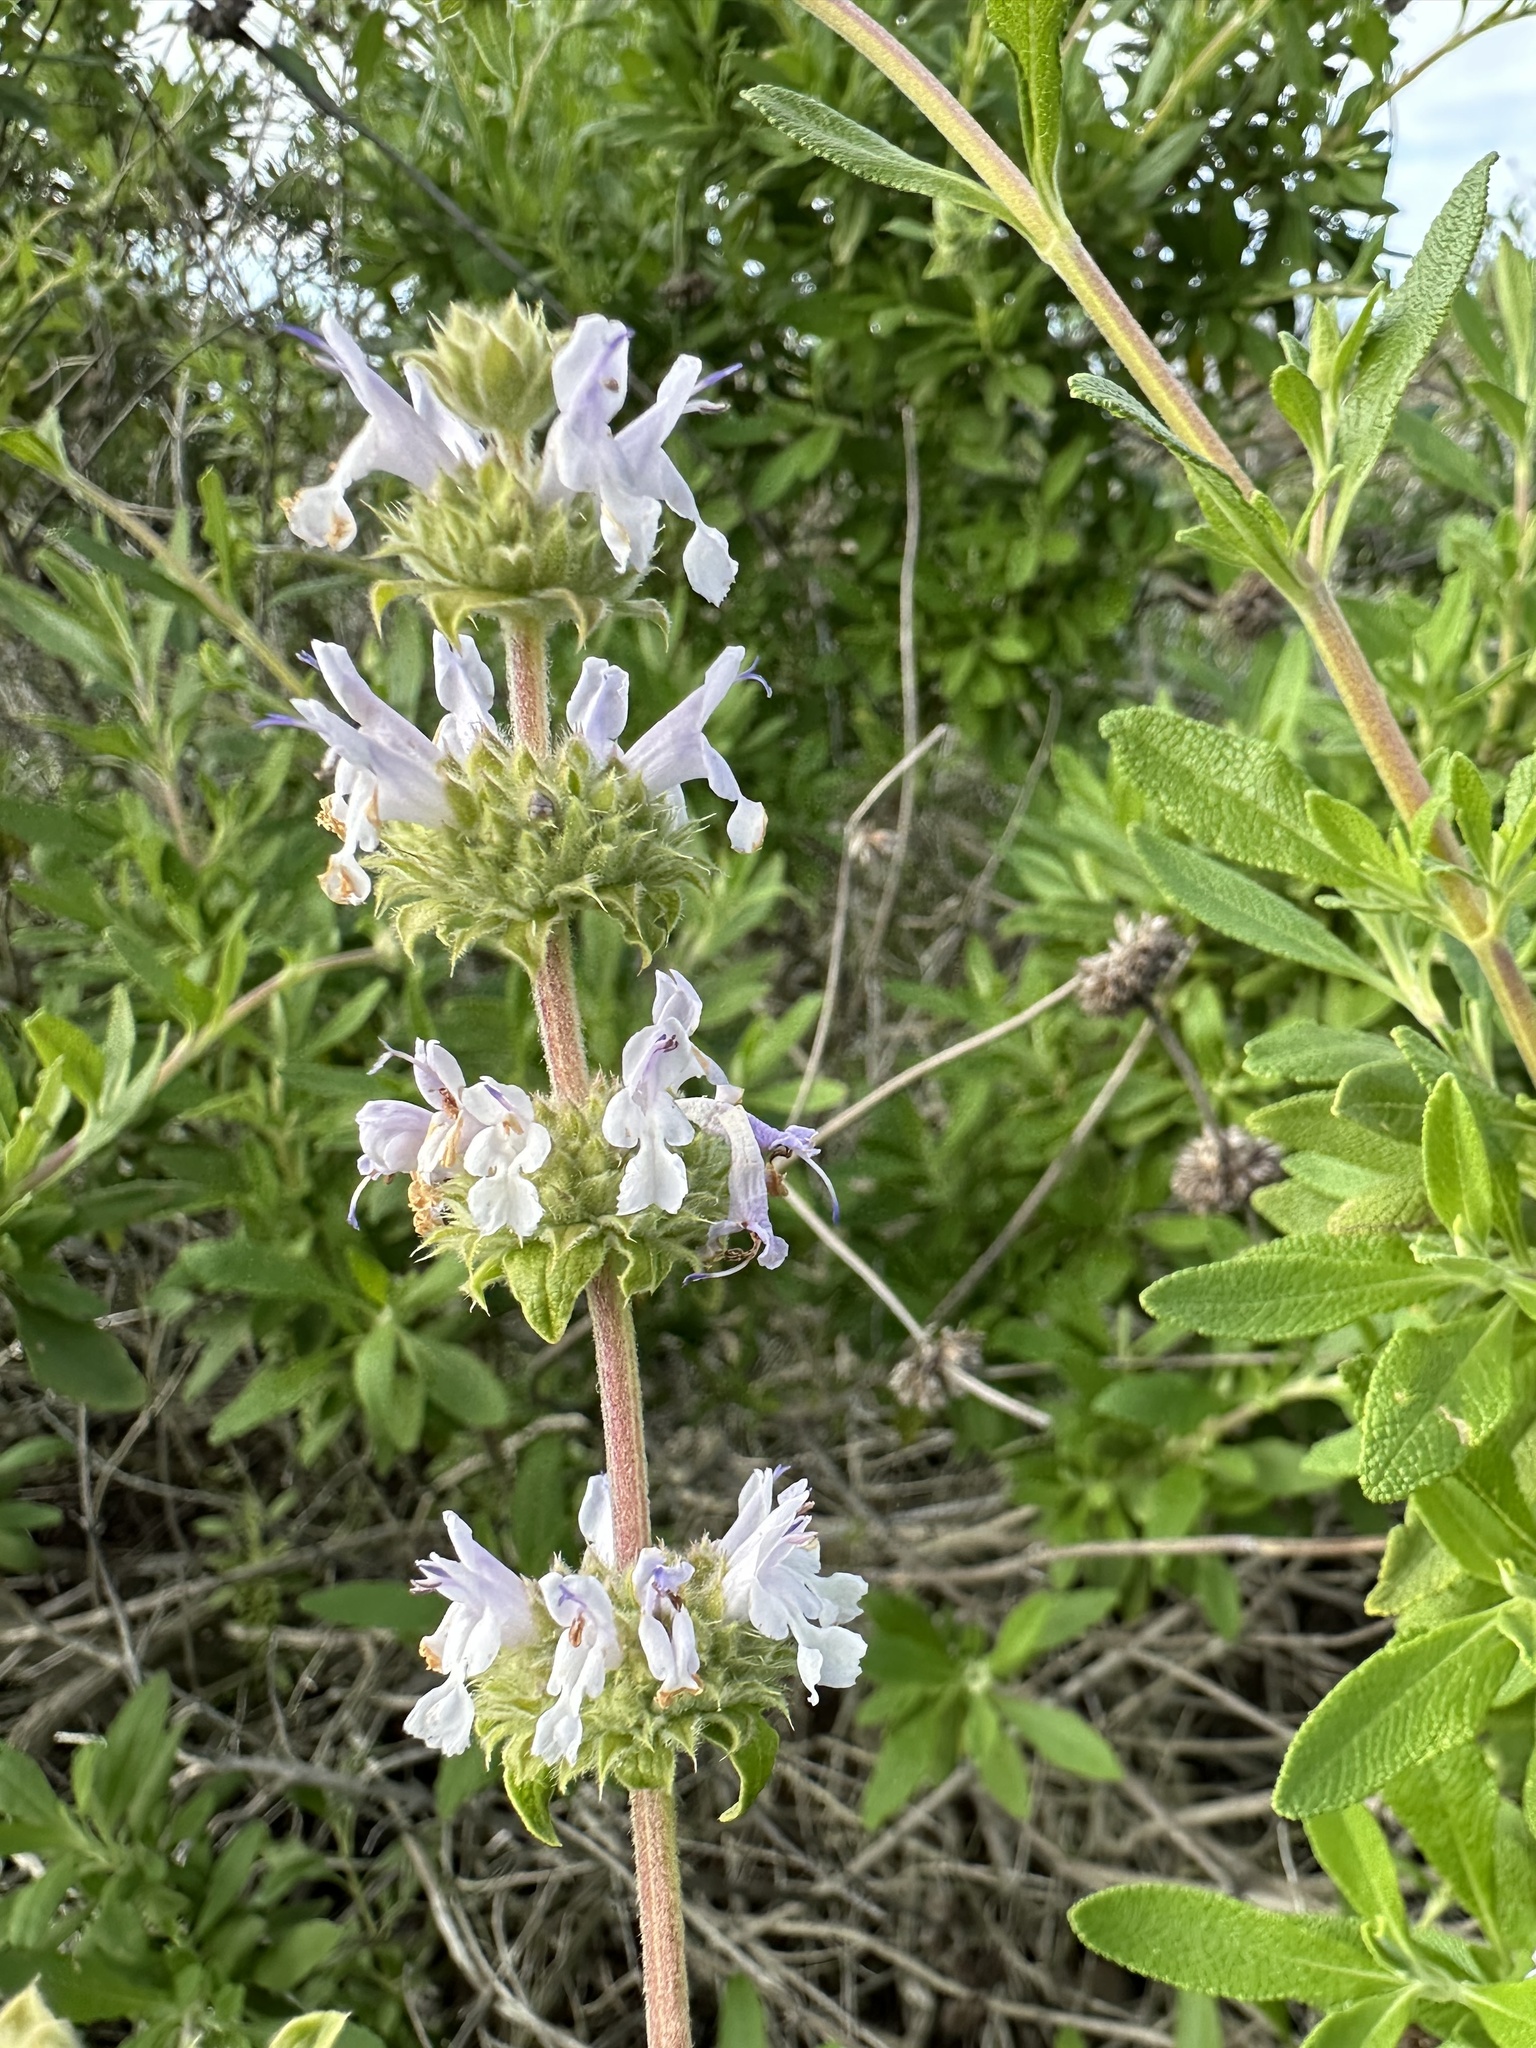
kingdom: Plantae
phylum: Tracheophyta
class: Magnoliopsida
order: Lamiales
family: Lamiaceae
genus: Salvia
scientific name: Salvia mellifera
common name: Black sage
